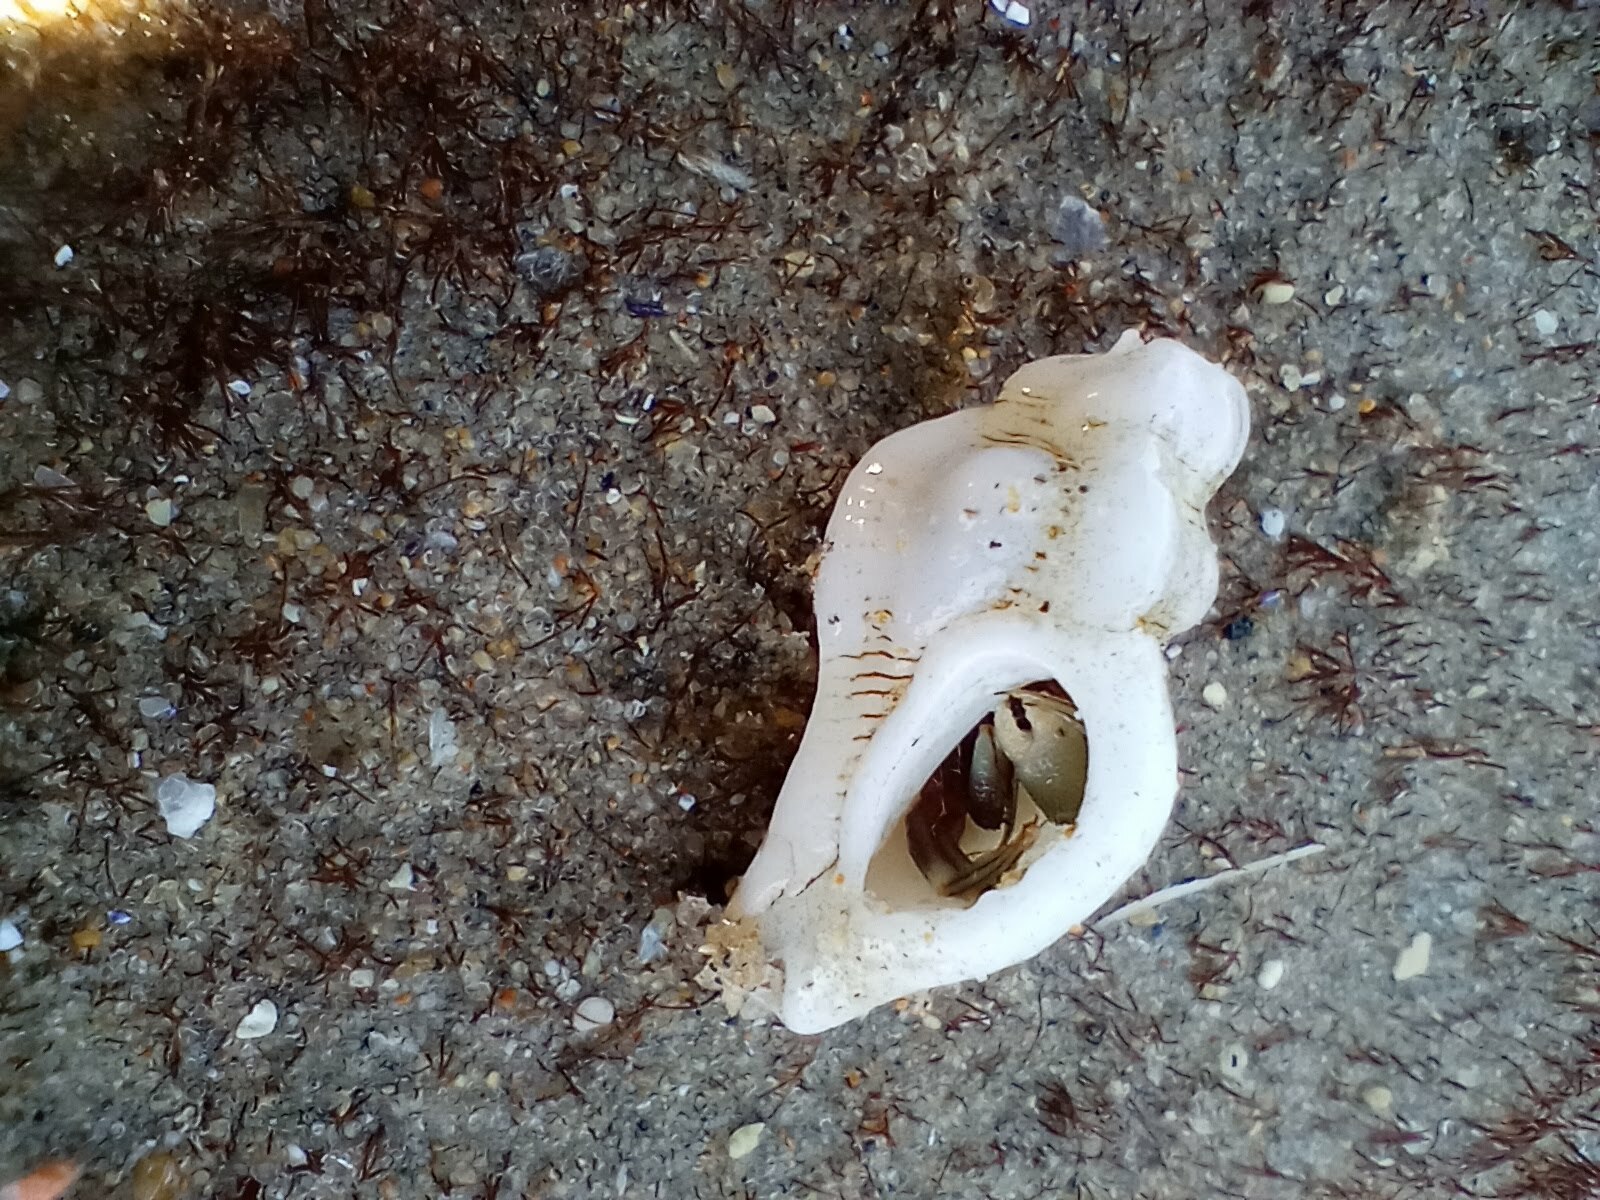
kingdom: Animalia
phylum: Mollusca
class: Gastropoda
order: Neogastropoda
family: Muricidae
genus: Pteropurpura
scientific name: Pteropurpura festiva
